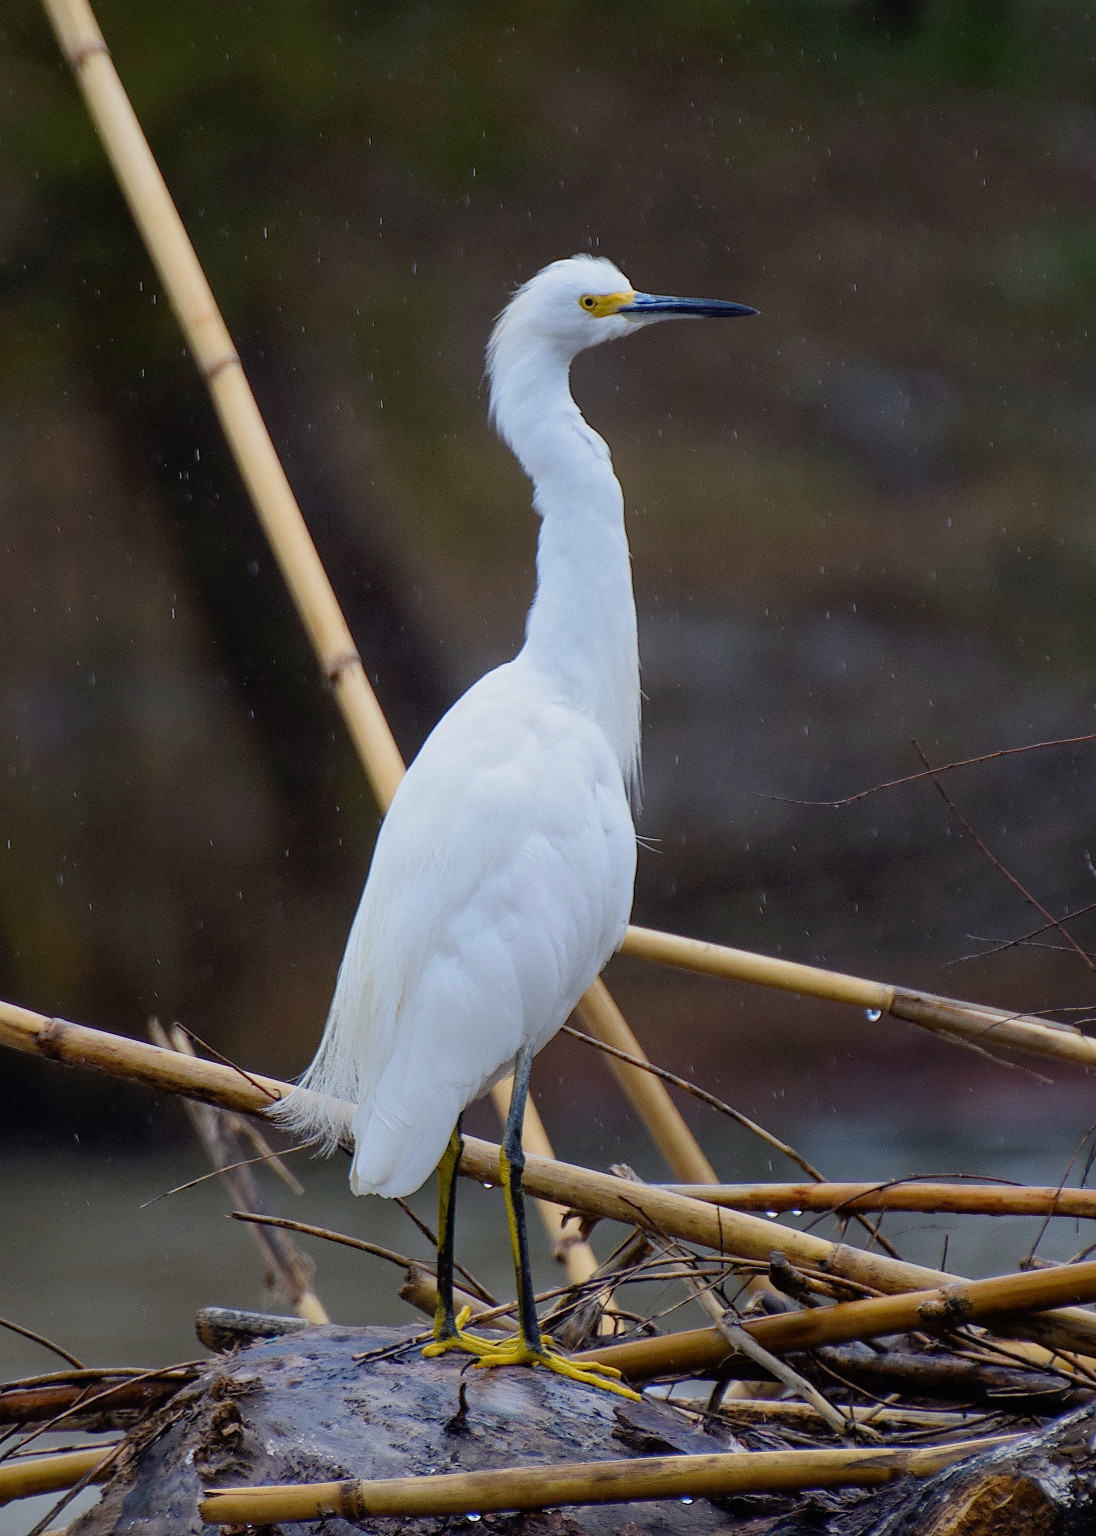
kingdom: Animalia
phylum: Chordata
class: Aves
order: Pelecaniformes
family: Ardeidae
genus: Egretta
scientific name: Egretta thula
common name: Snowy egret
